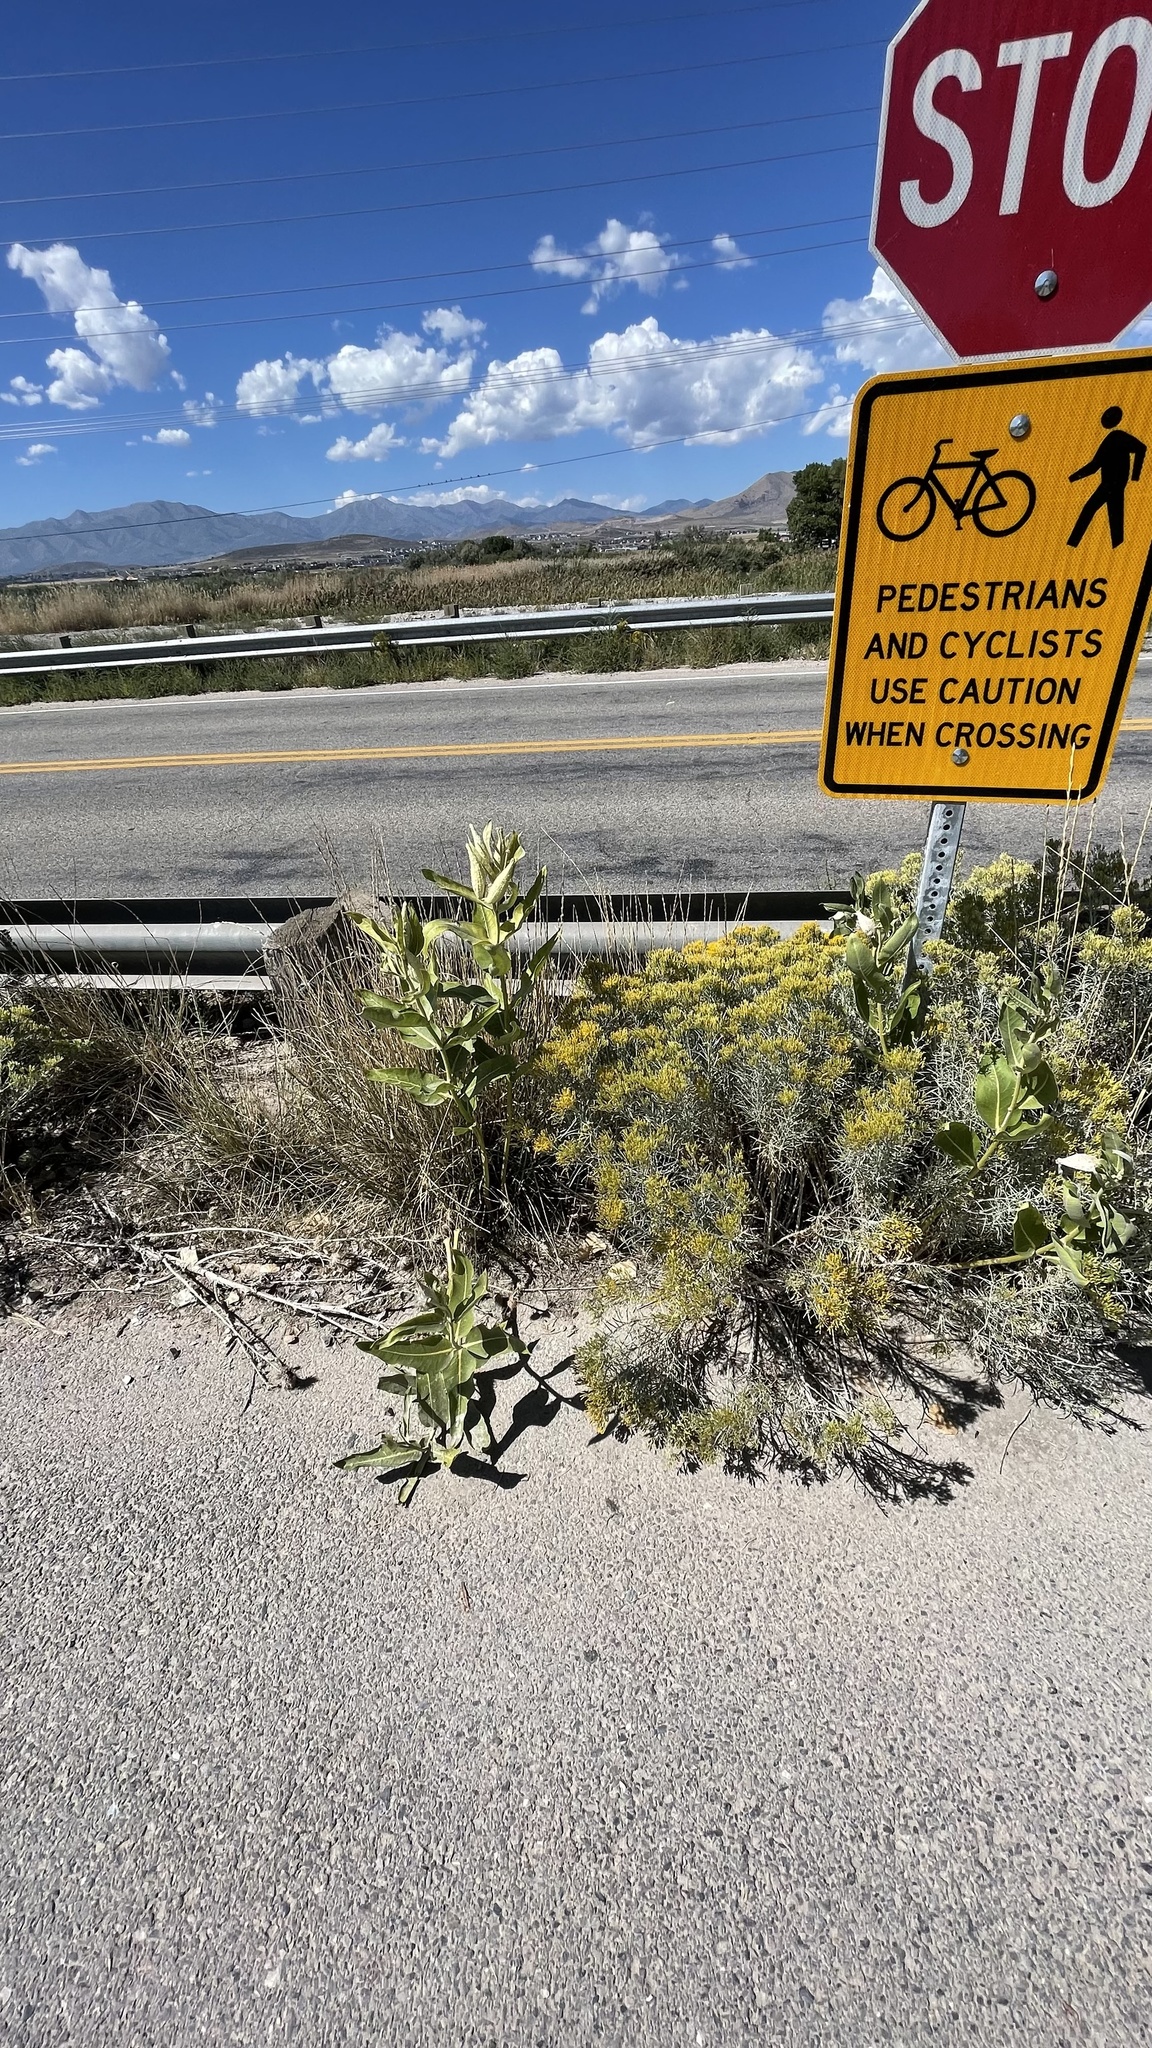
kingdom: Plantae
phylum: Tracheophyta
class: Magnoliopsida
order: Gentianales
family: Apocynaceae
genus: Asclepias
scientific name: Asclepias speciosa
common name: Showy milkweed
